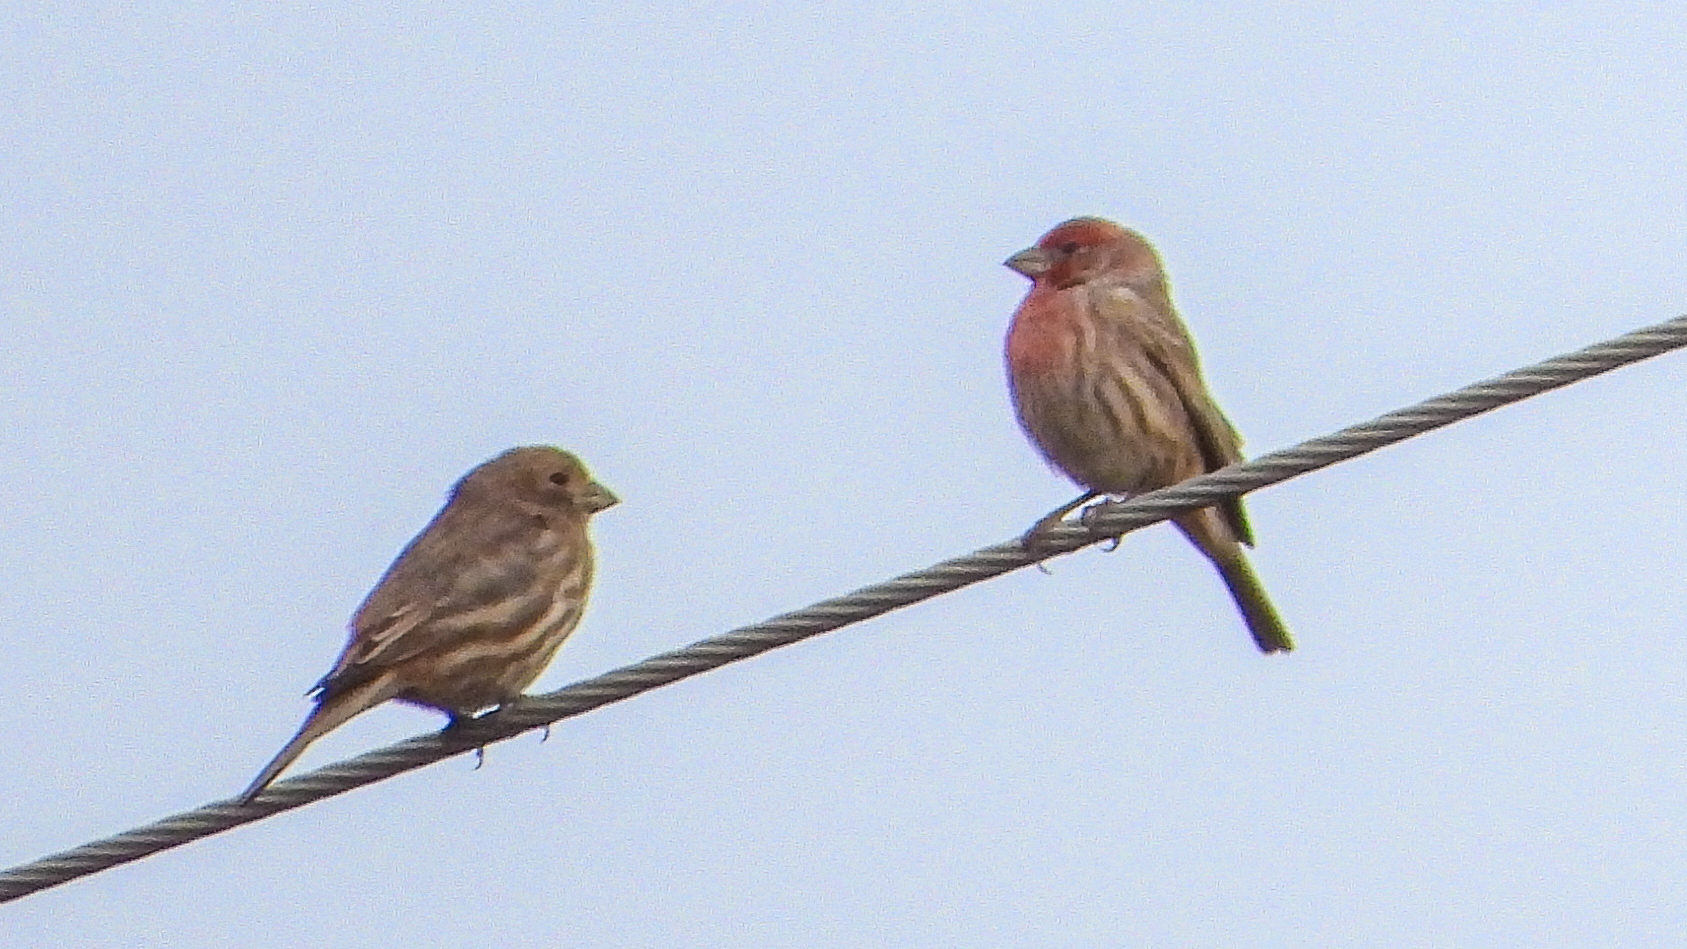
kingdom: Animalia
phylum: Chordata
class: Aves
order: Passeriformes
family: Fringillidae
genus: Haemorhous
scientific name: Haemorhous mexicanus
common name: House finch
